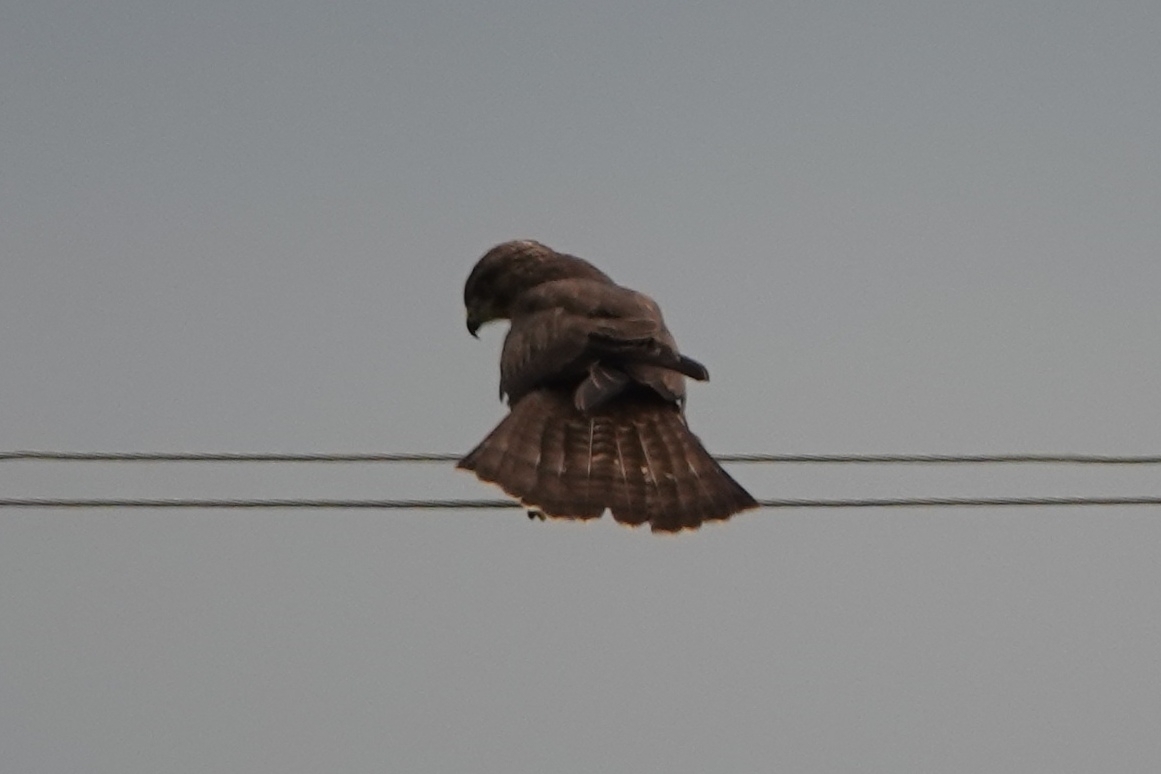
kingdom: Animalia
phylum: Chordata
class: Aves
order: Accipitriformes
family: Accipitridae
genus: Buteo
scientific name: Buteo buteo
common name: Common buzzard
